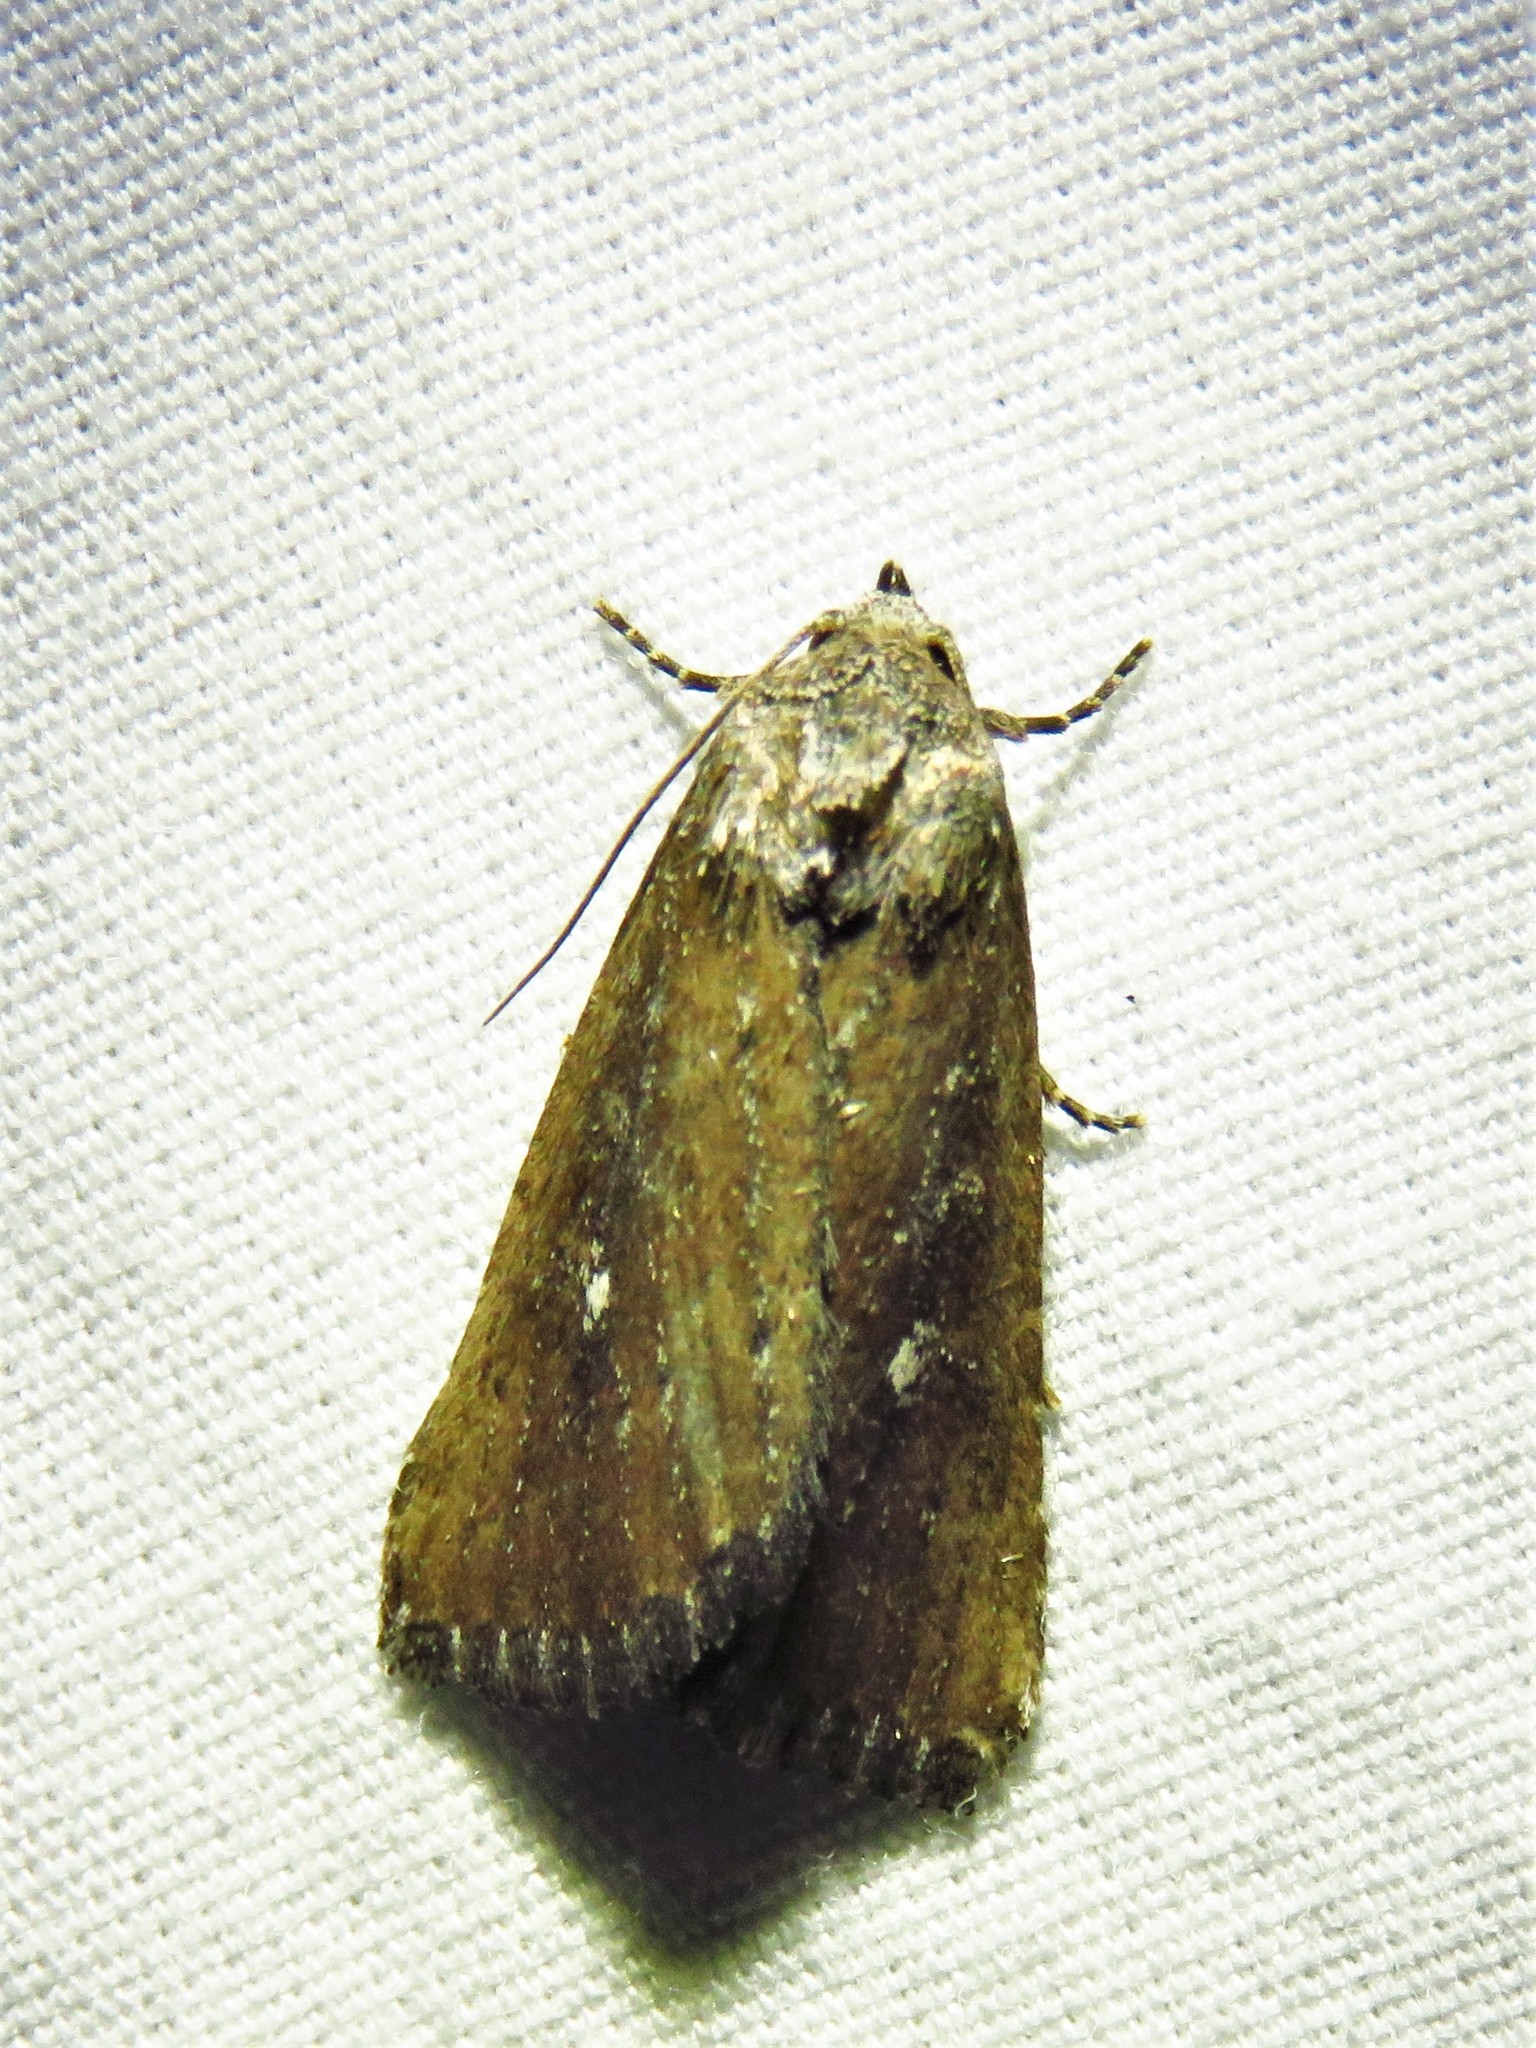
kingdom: Animalia
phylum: Arthropoda
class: Insecta
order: Lepidoptera
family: Noctuidae
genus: Condica
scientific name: Condica videns
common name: White-dotted groundling
